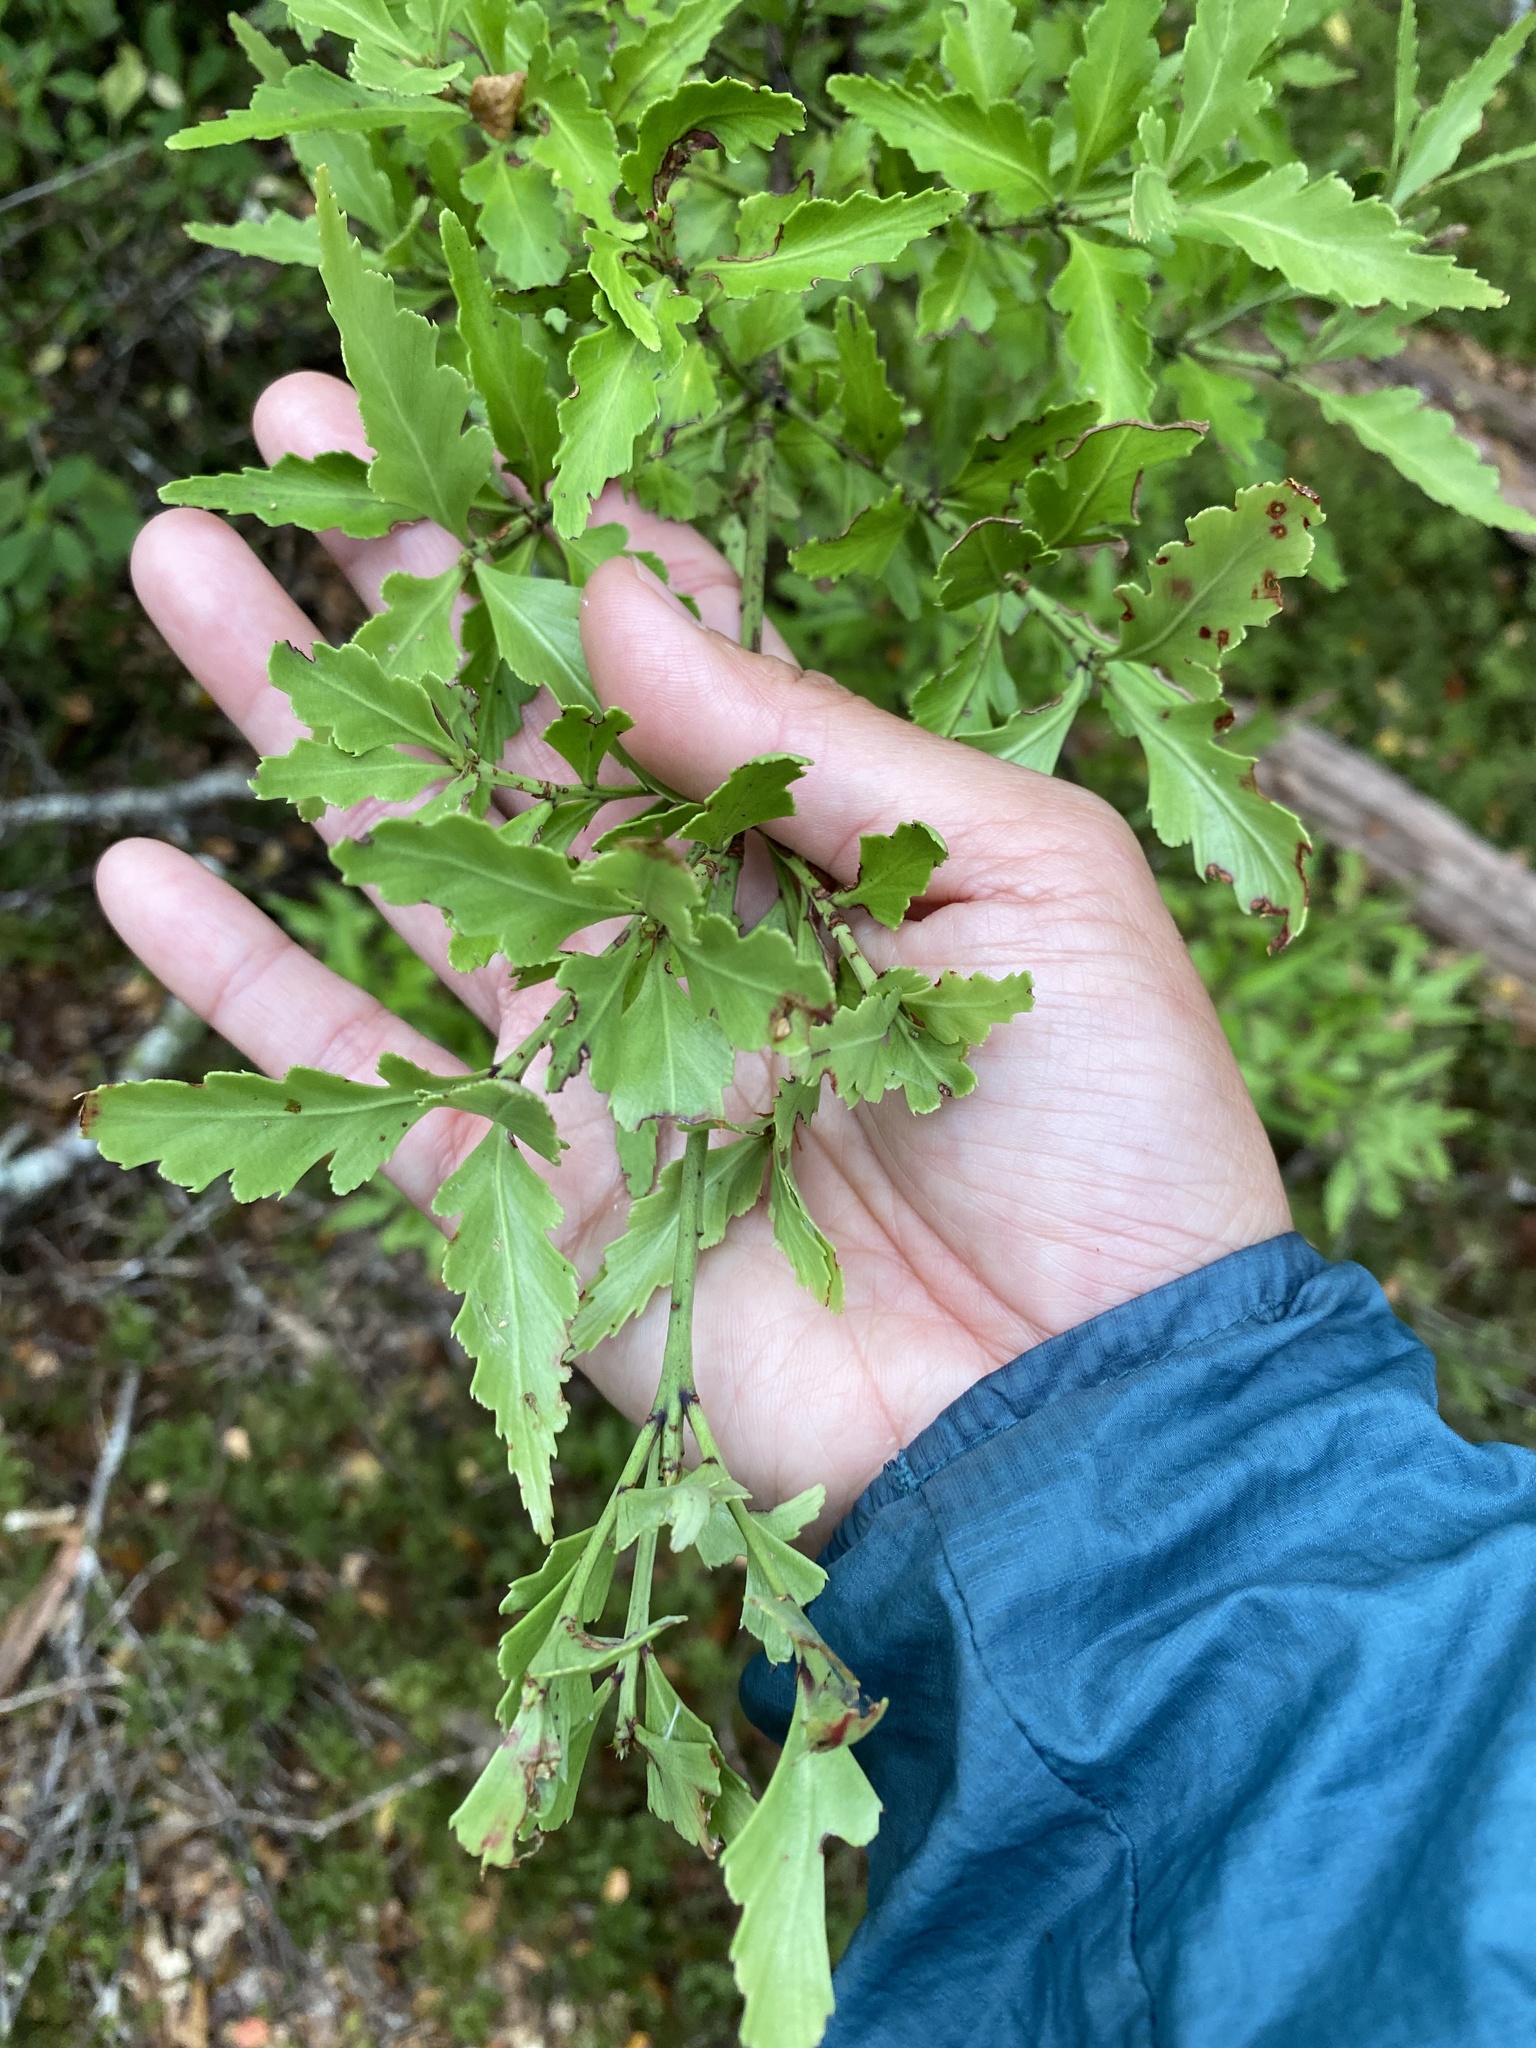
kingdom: Plantae
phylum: Tracheophyta
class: Pinopsida
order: Pinales
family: Phyllocladaceae
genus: Phyllocladus
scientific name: Phyllocladus trichomanoides
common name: Celery pine
